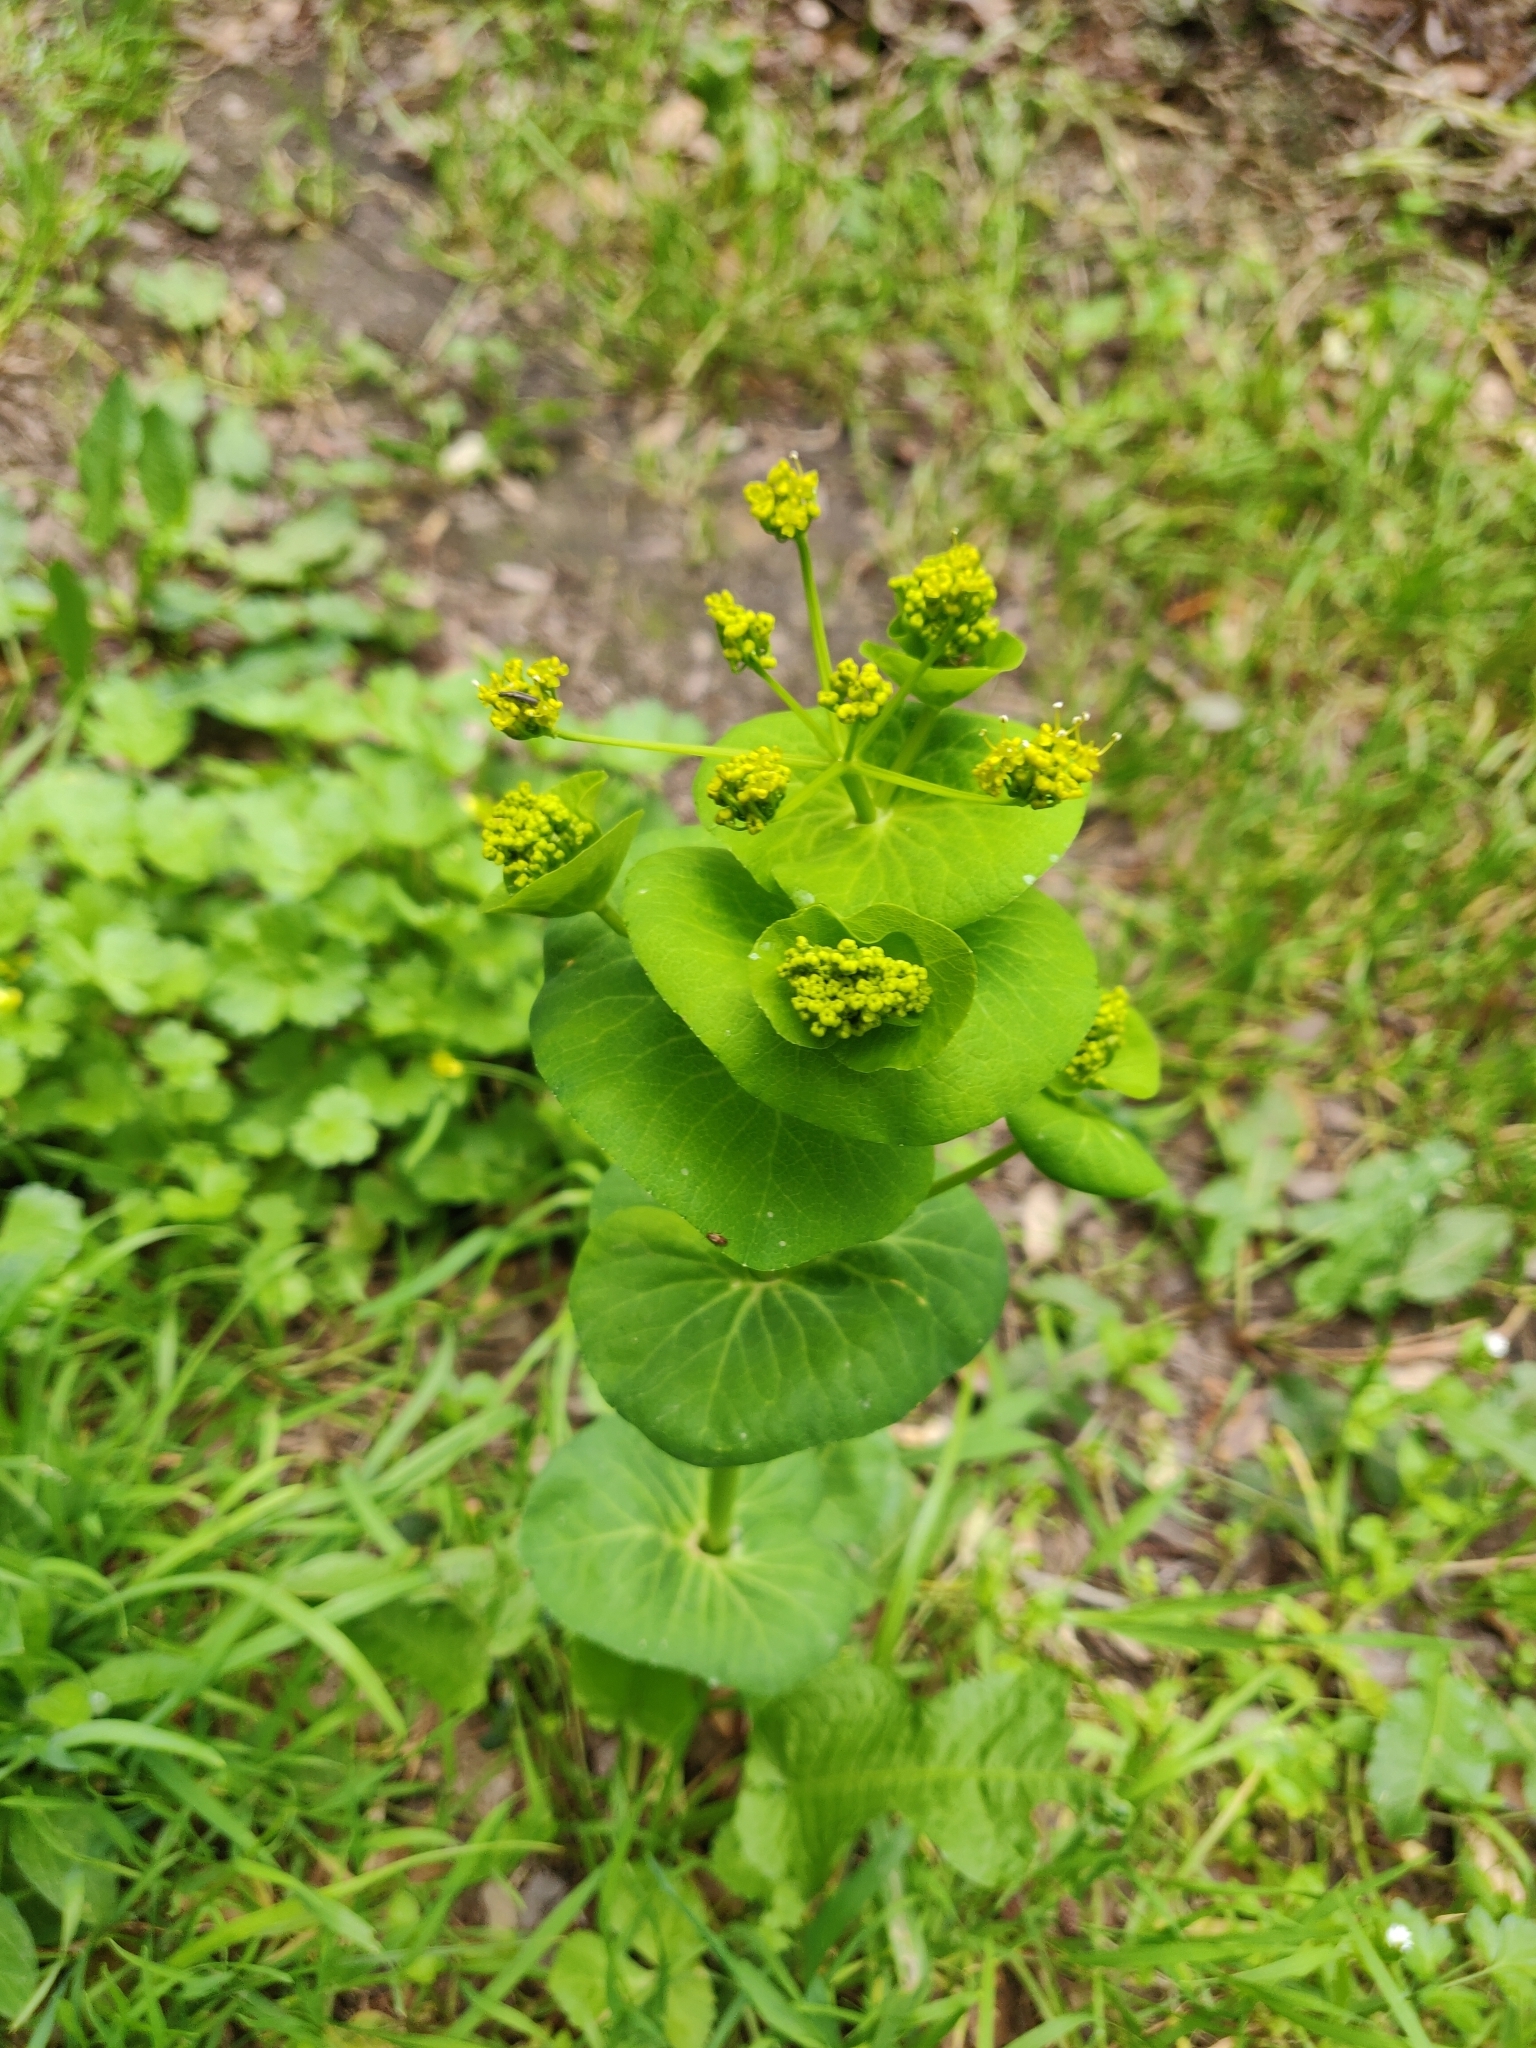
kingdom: Plantae
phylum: Tracheophyta
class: Magnoliopsida
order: Apiales
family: Apiaceae
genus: Smyrnium
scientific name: Smyrnium perfoliatum
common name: Perfoliate alexanders
